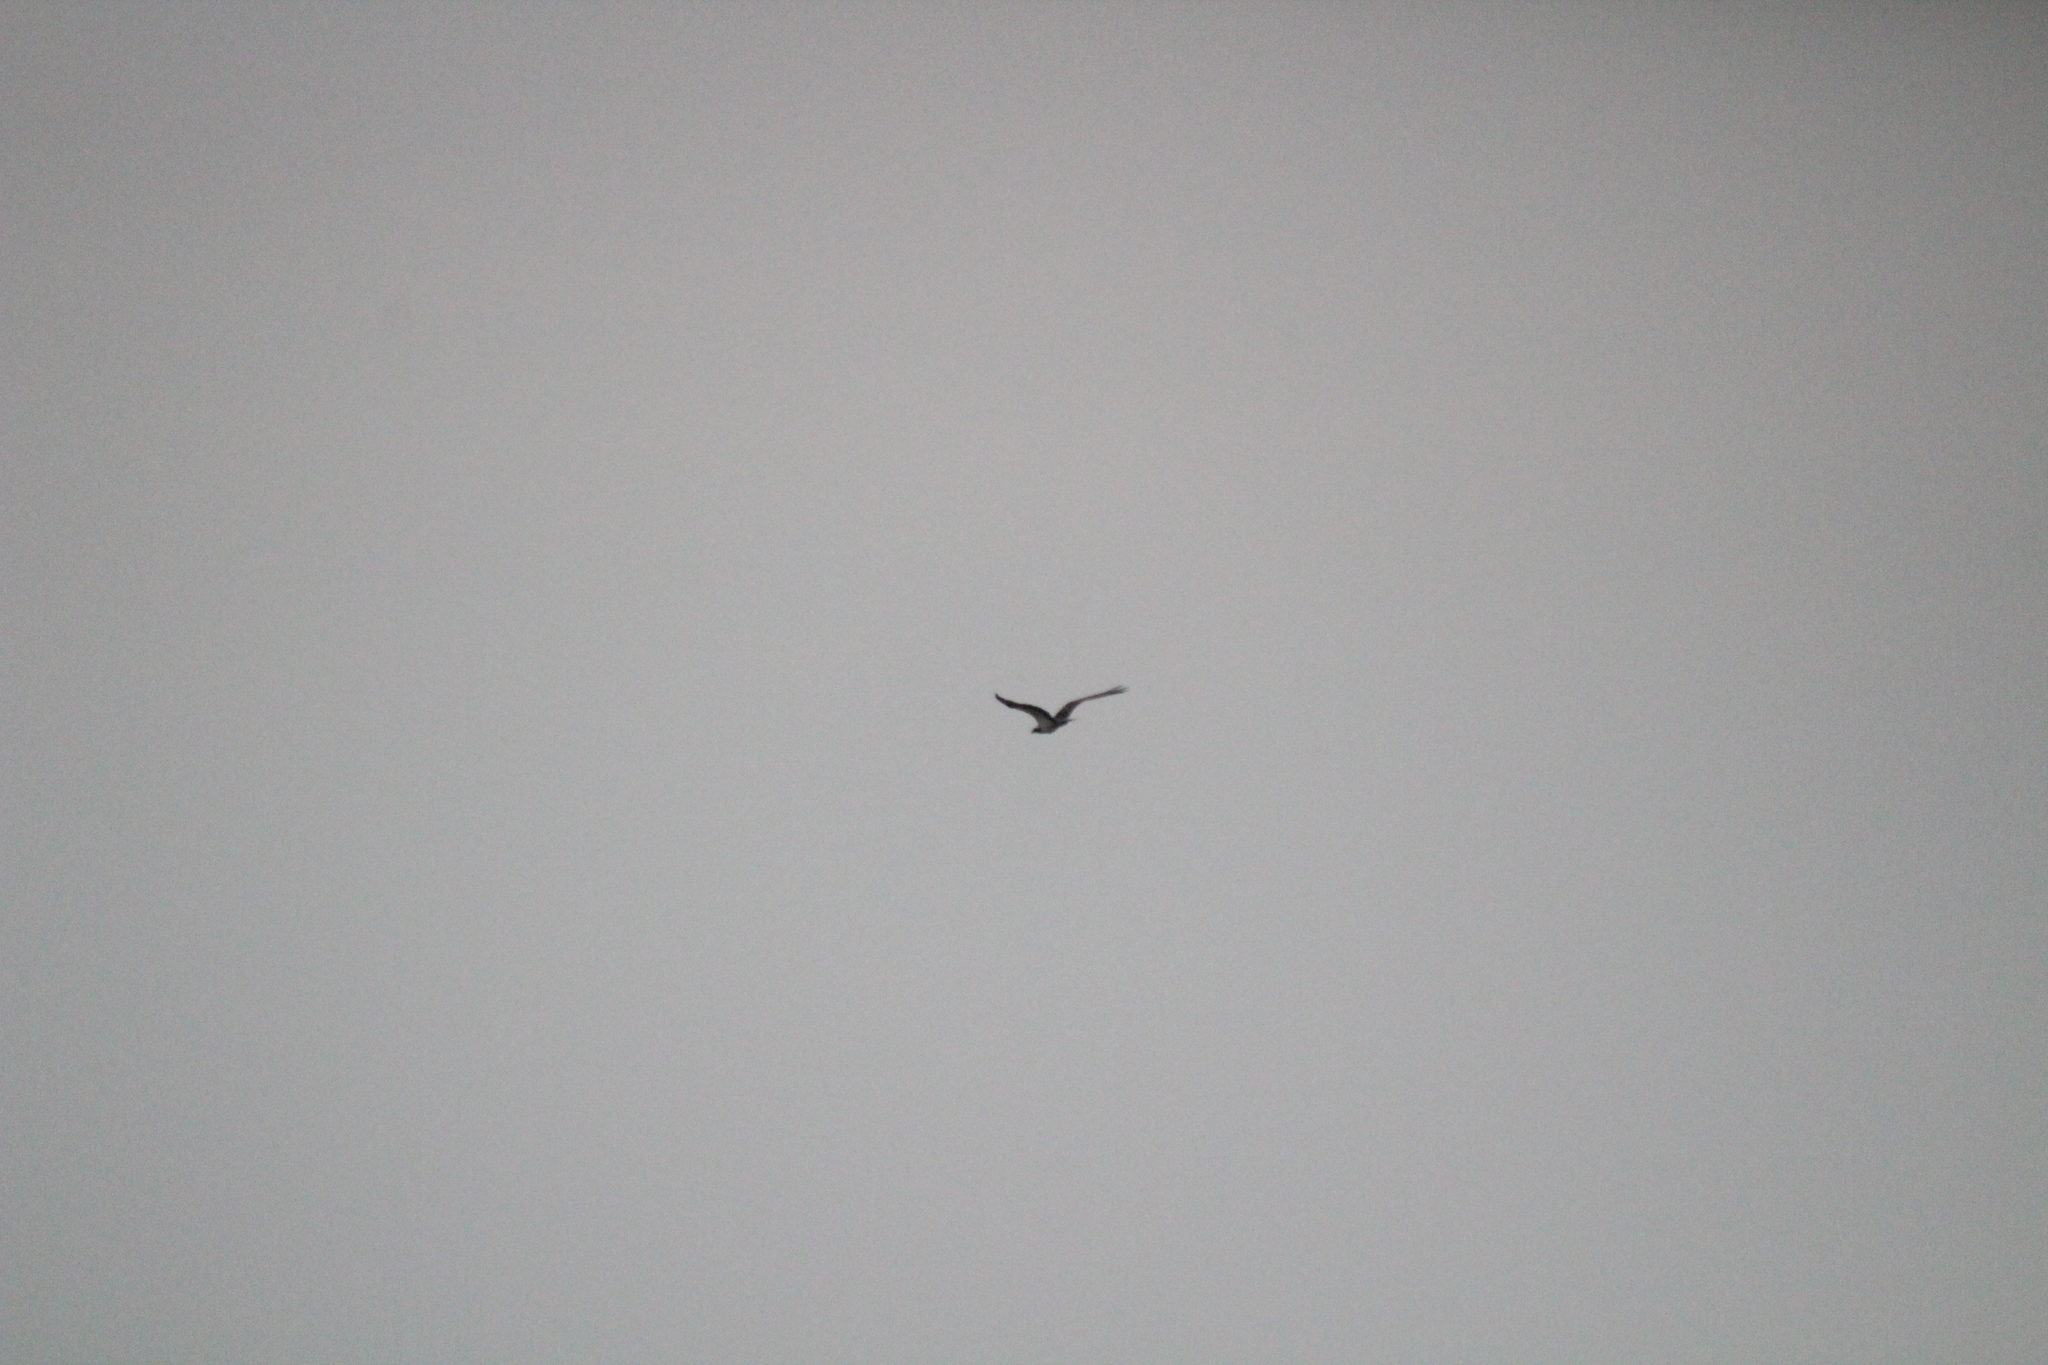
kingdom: Animalia
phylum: Chordata
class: Aves
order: Accipitriformes
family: Pandionidae
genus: Pandion
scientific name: Pandion haliaetus
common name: Osprey
